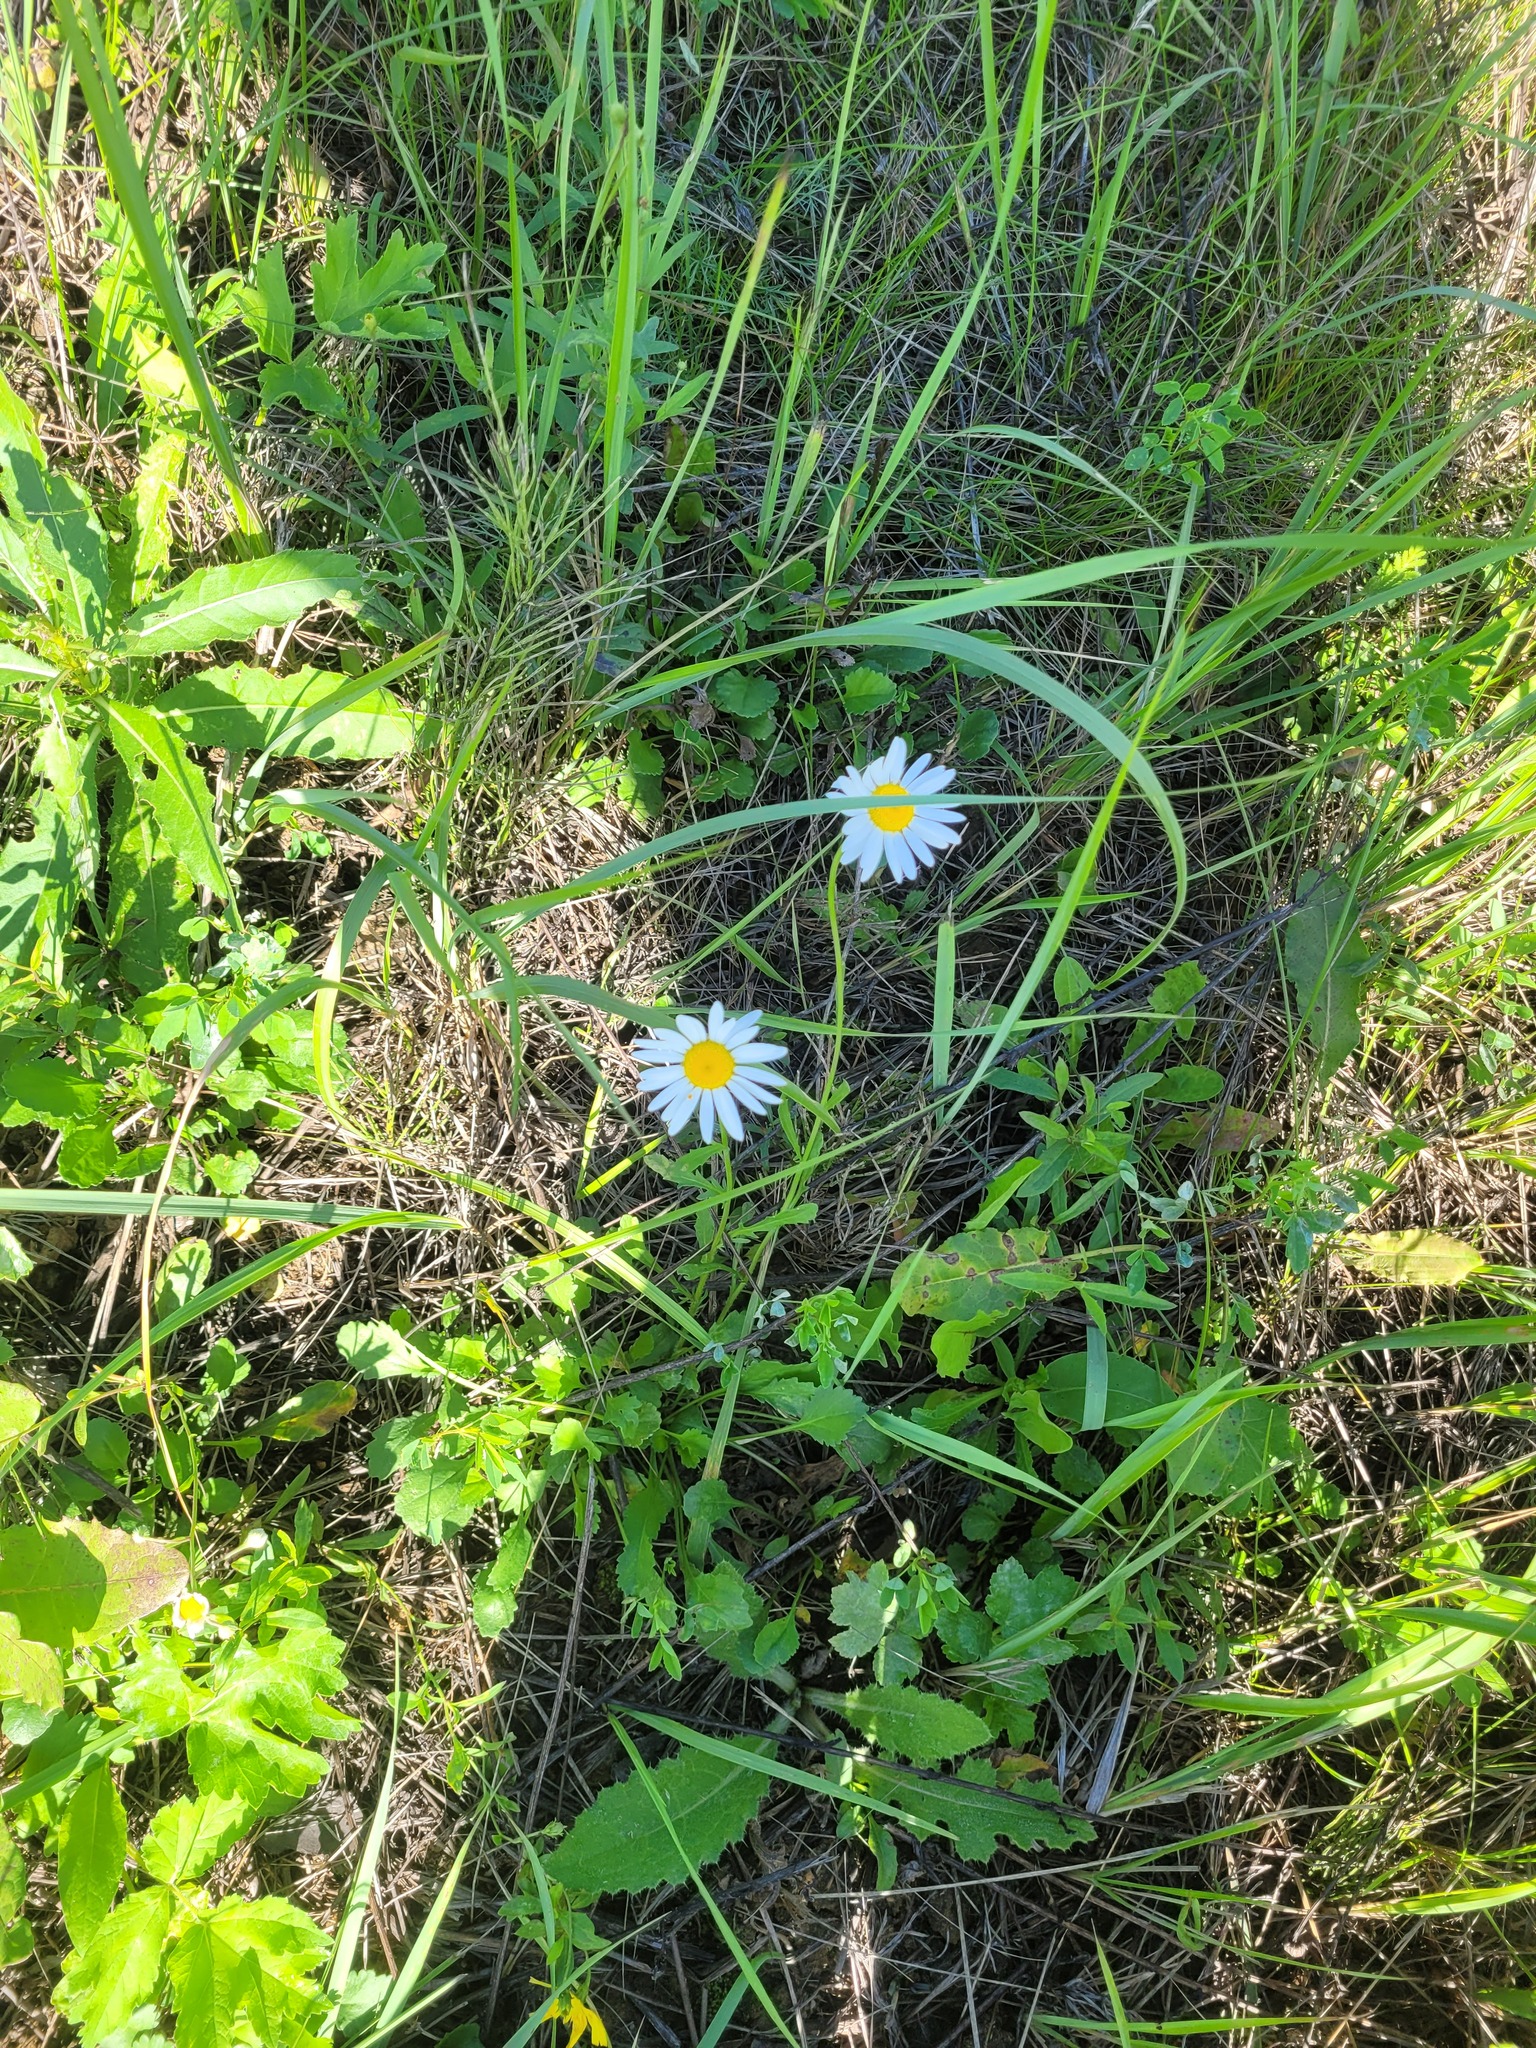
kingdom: Plantae
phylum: Tracheophyta
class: Magnoliopsida
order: Asterales
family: Asteraceae
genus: Leucanthemum
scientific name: Leucanthemum vulgare
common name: Oxeye daisy
